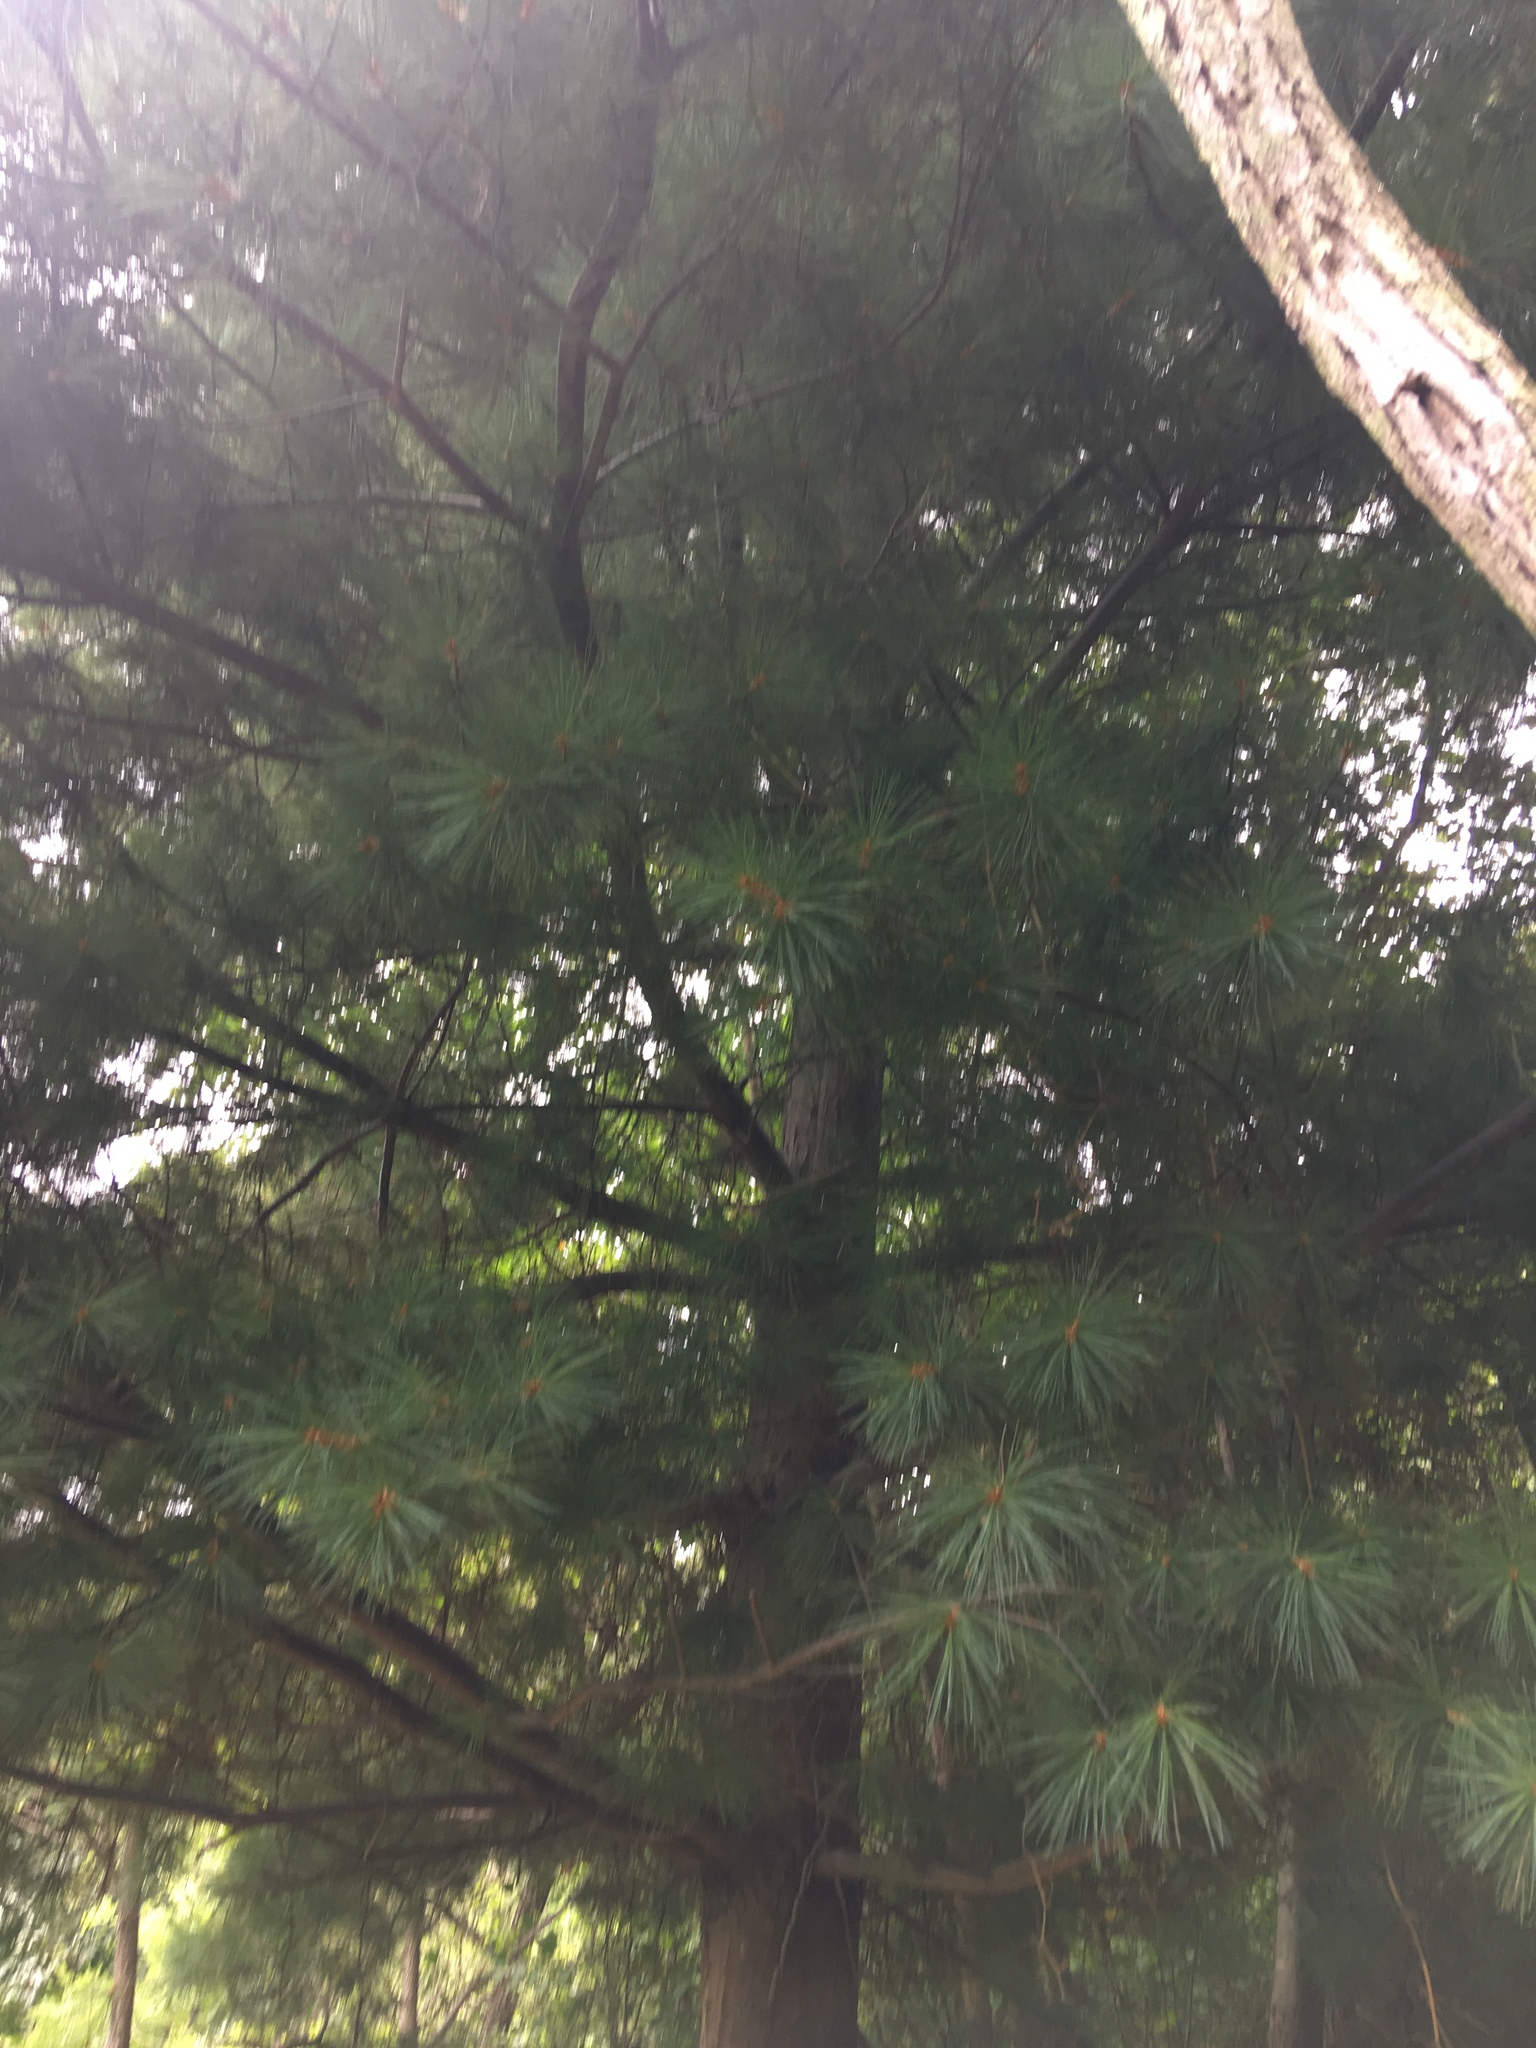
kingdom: Plantae
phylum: Tracheophyta
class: Pinopsida
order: Pinales
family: Pinaceae
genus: Pinus
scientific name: Pinus strobus
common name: Weymouth pine
